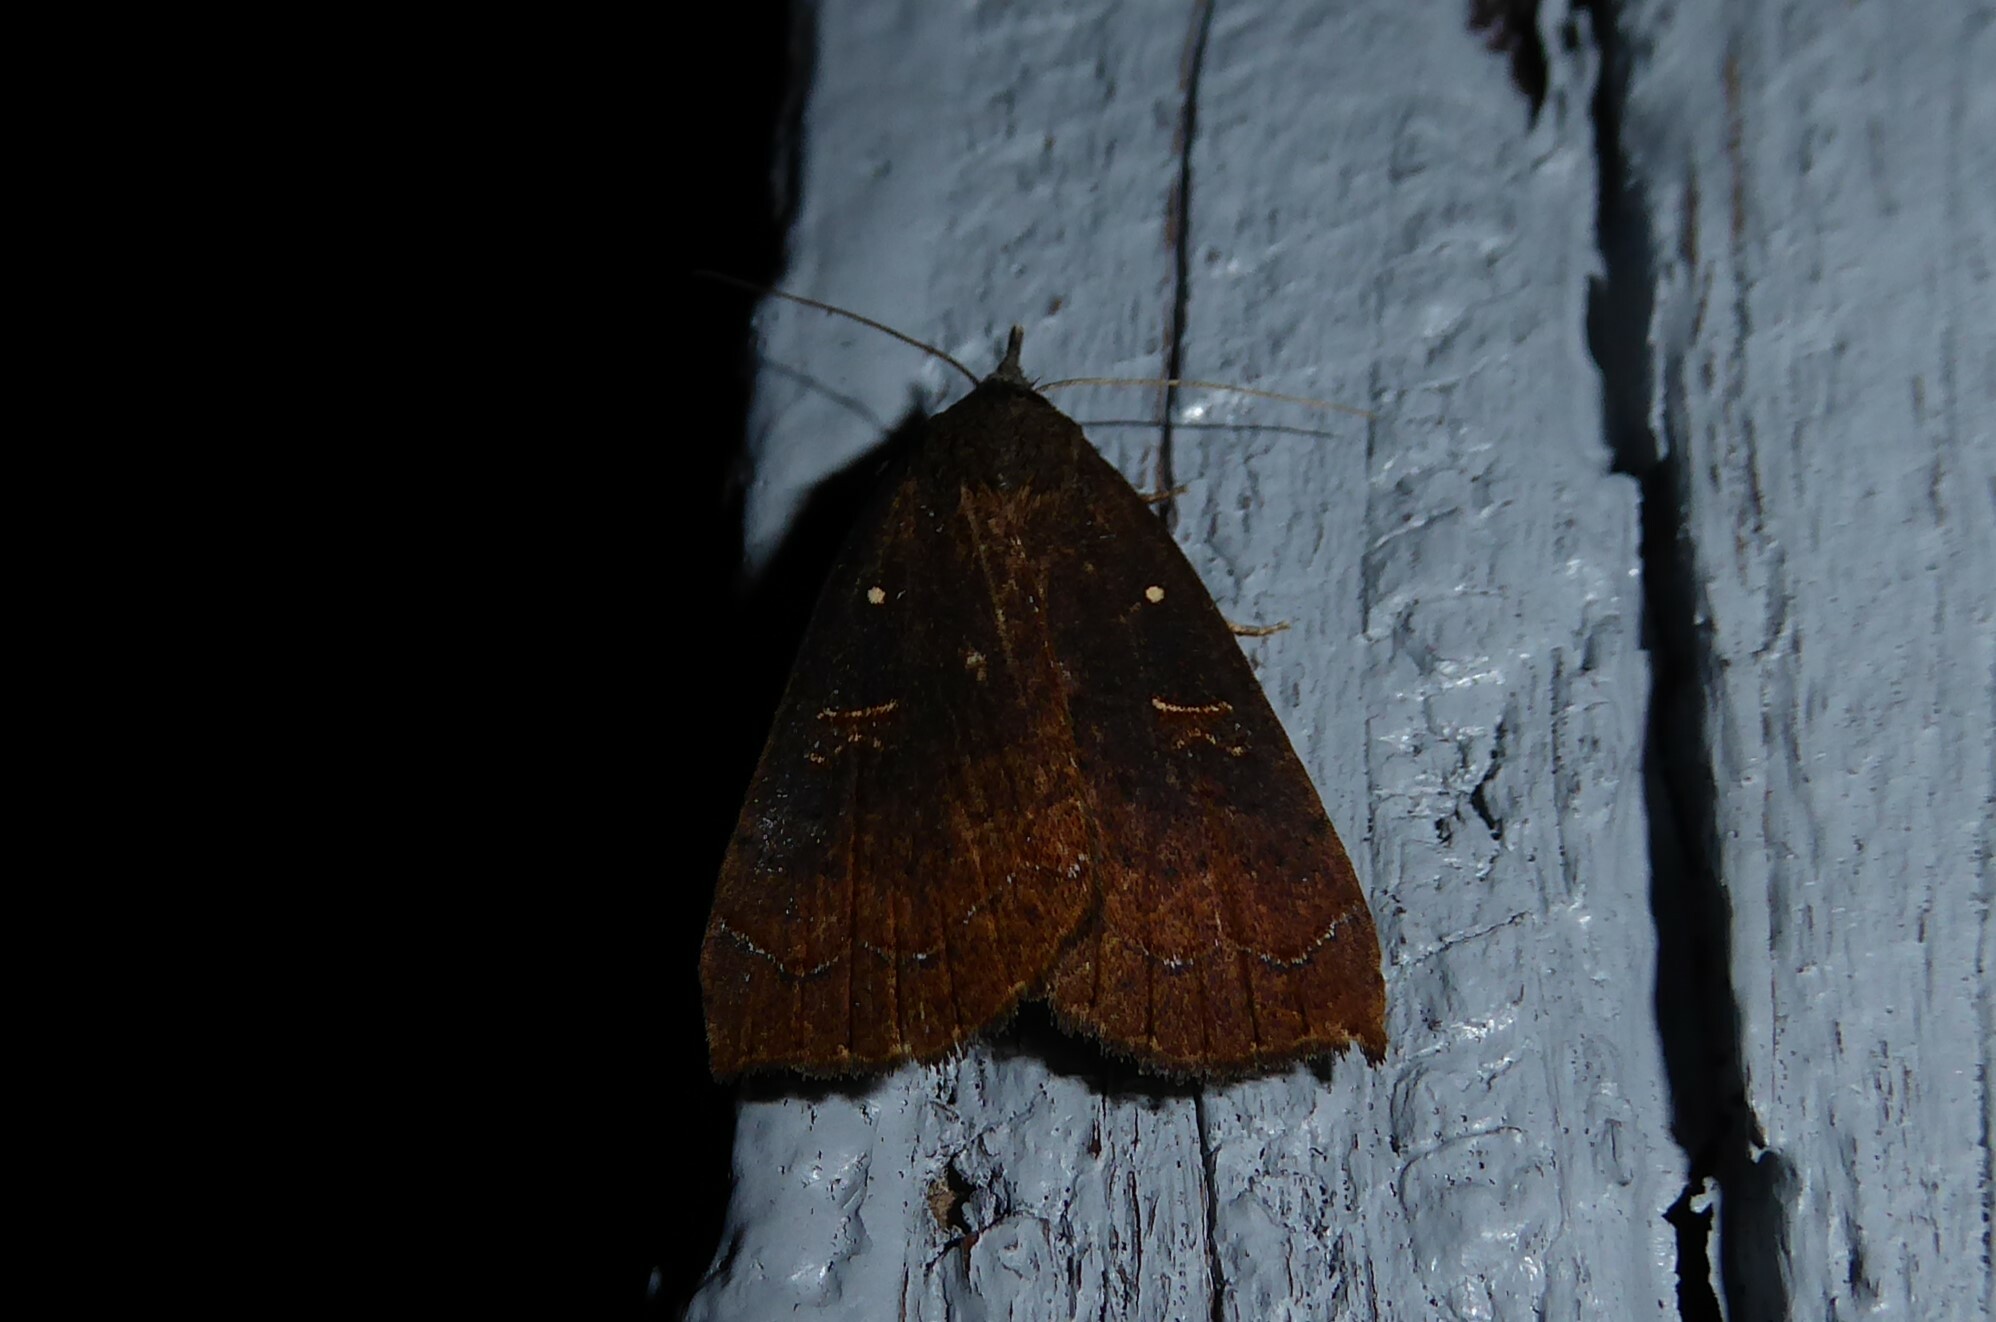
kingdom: Animalia
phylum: Arthropoda
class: Insecta
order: Lepidoptera
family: Erebidae
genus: Rhapsa
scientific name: Rhapsa scotosialis
